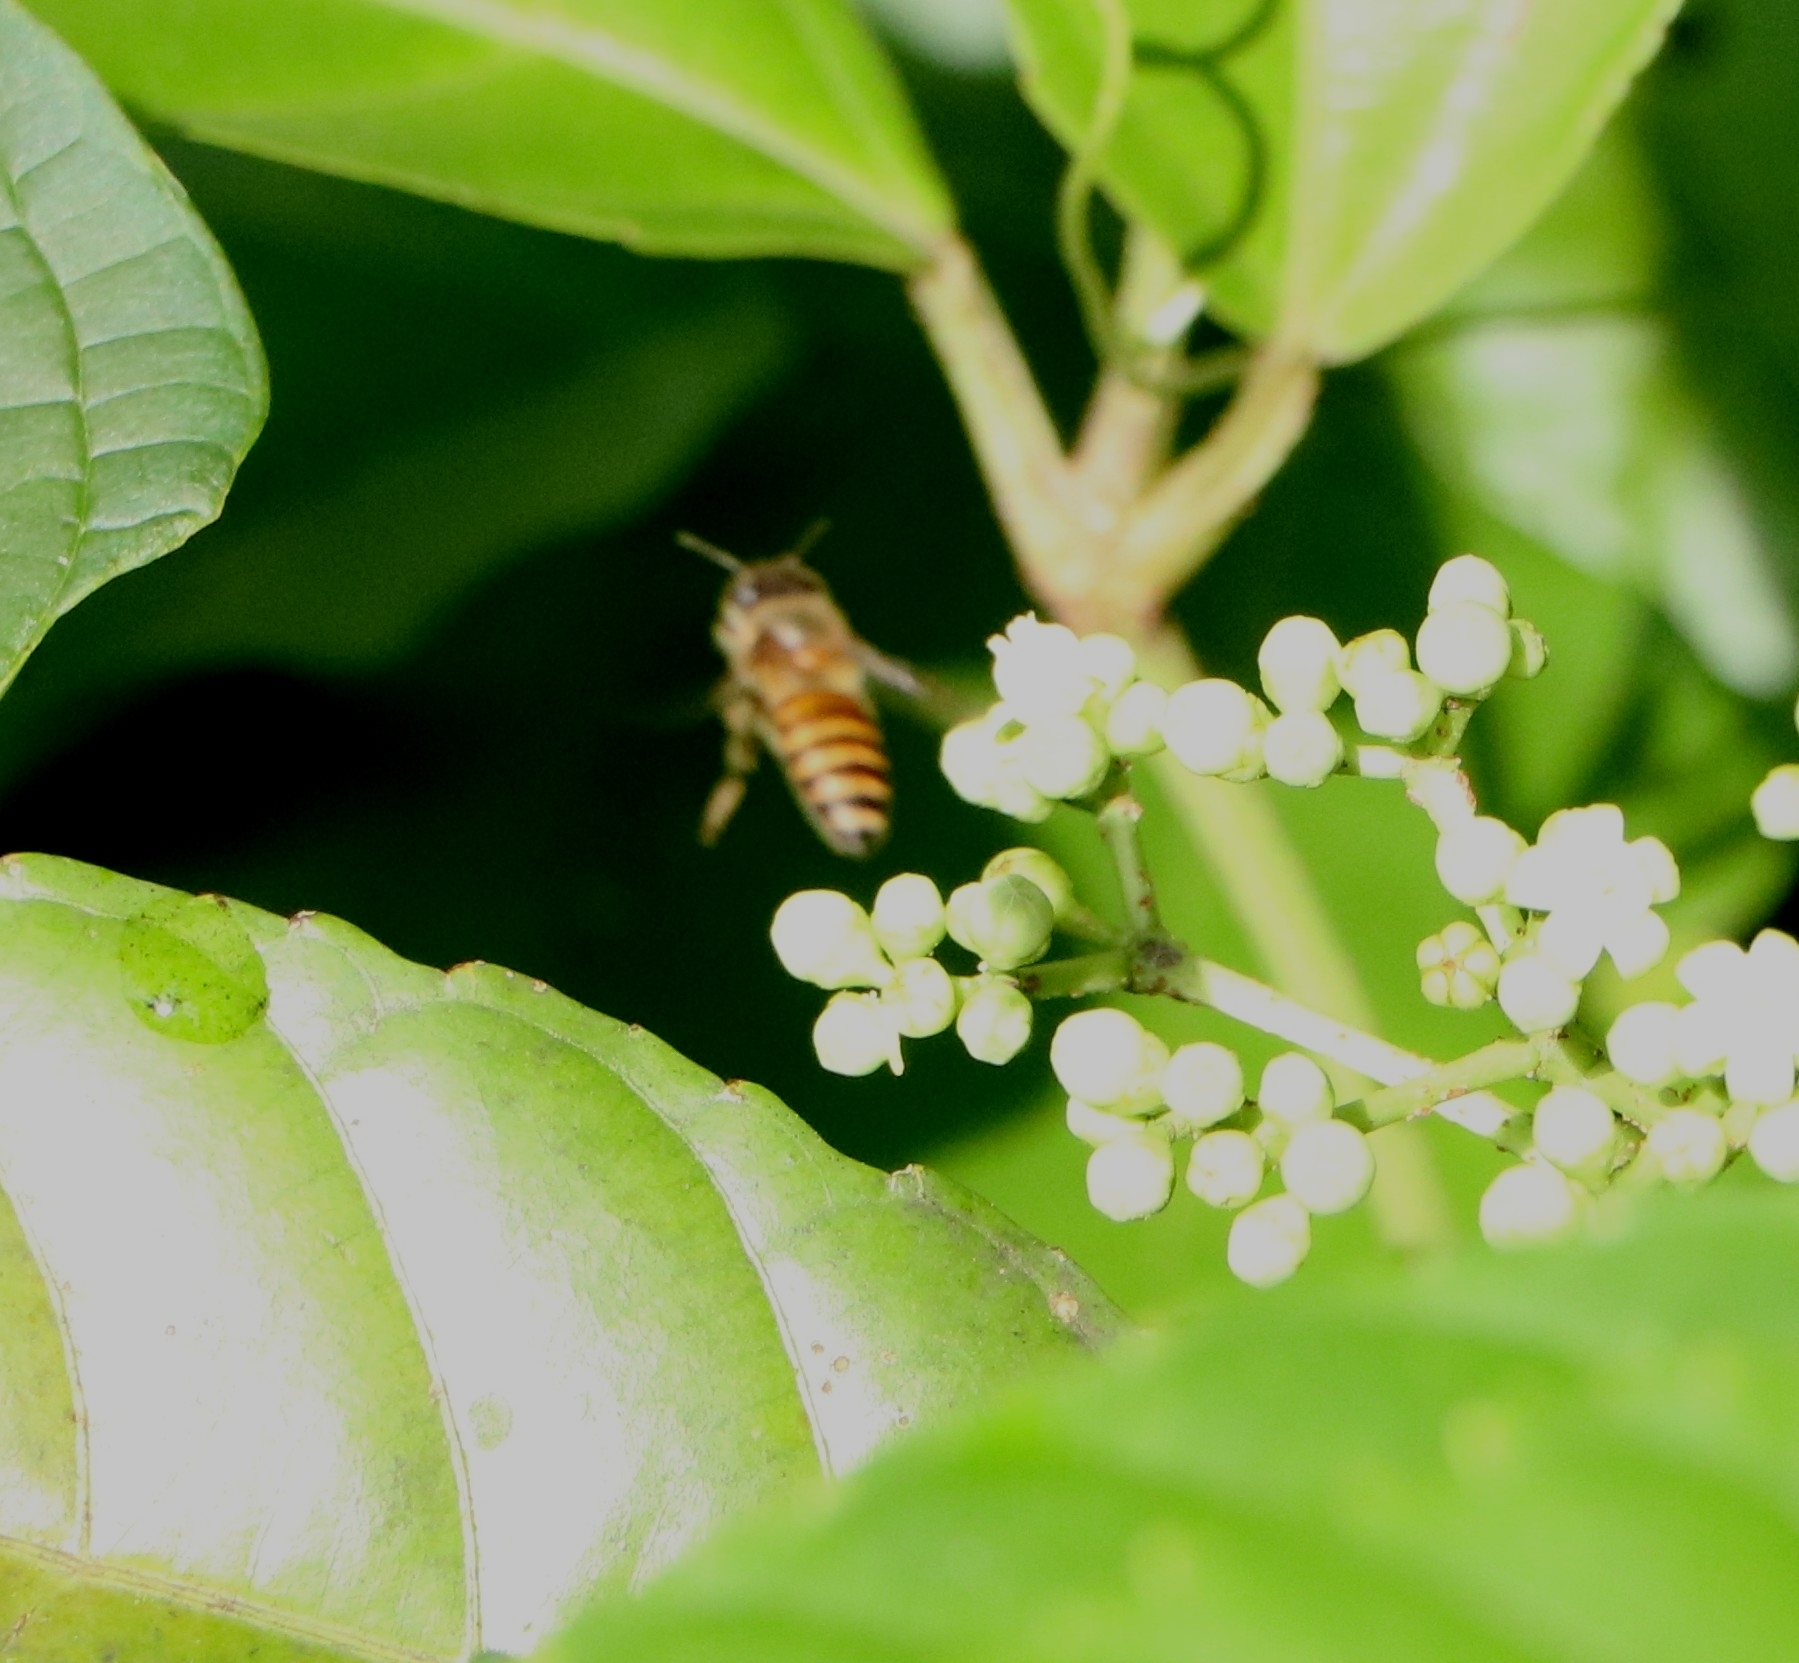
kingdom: Animalia
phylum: Arthropoda
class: Insecta
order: Hymenoptera
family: Apidae
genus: Apis
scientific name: Apis cerana
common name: Honey bee
